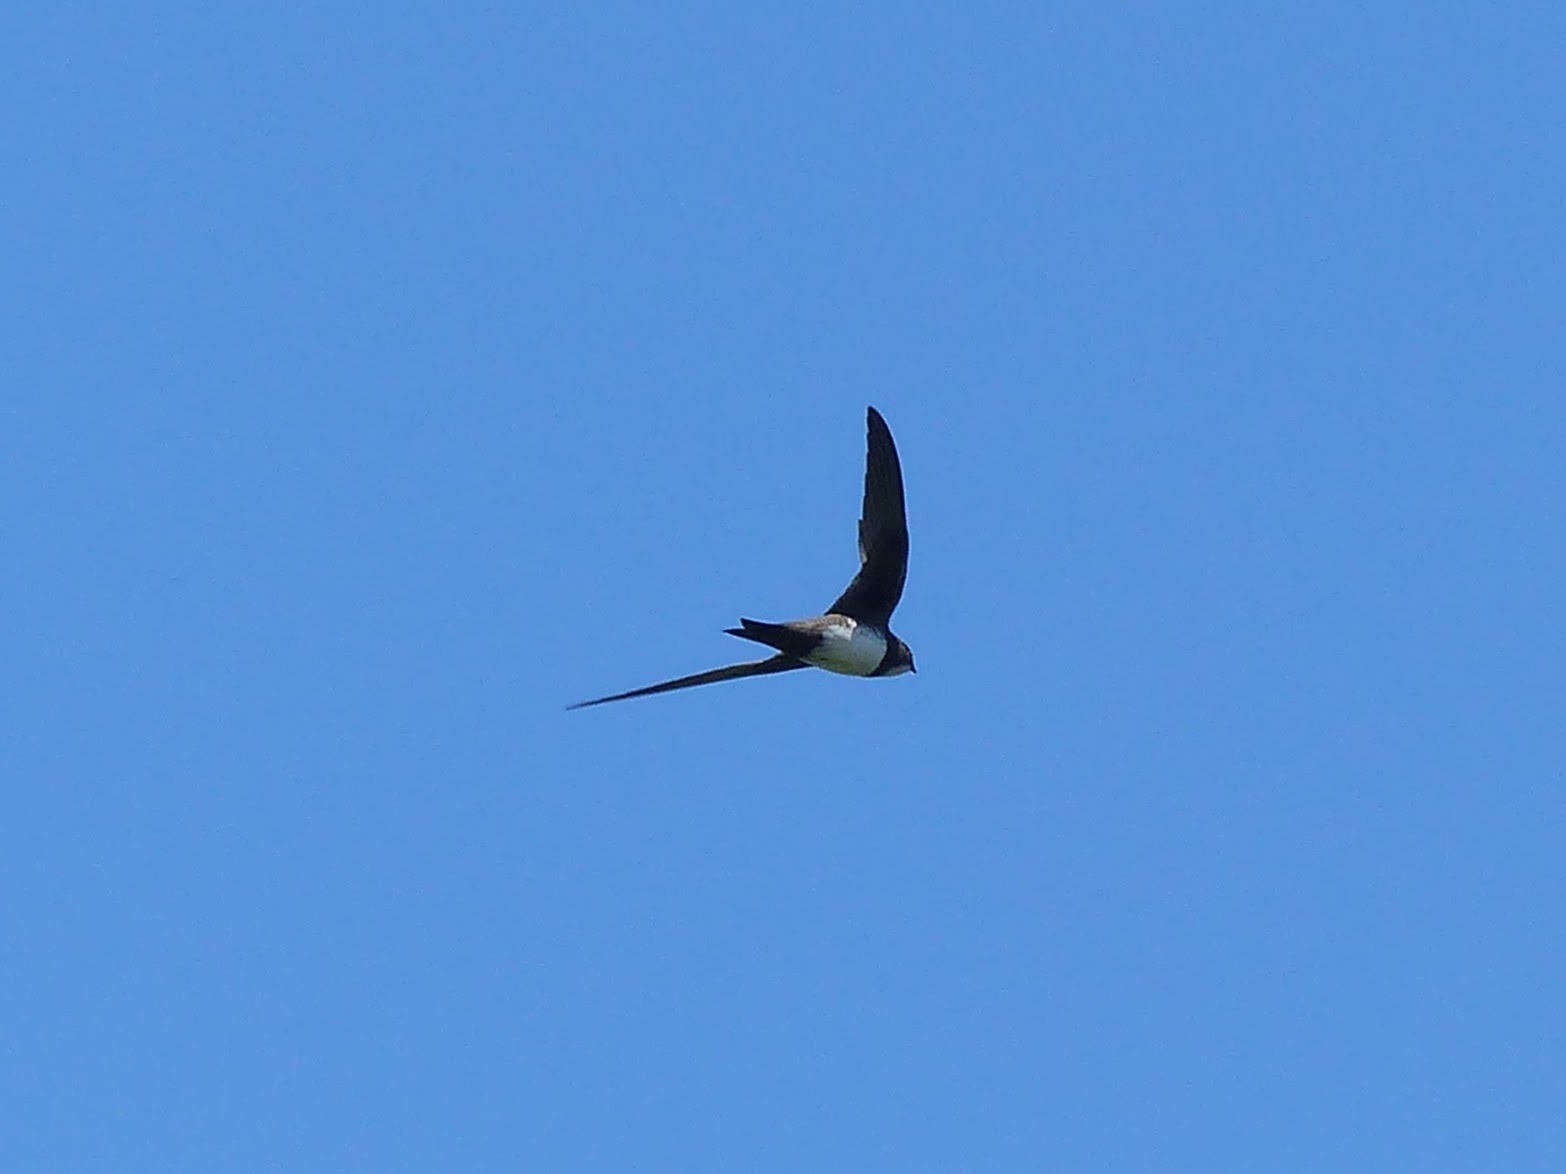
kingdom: Animalia
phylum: Chordata
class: Aves
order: Apodiformes
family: Apodidae
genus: Tachymarptis
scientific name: Tachymarptis melba
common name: Alpine swift
